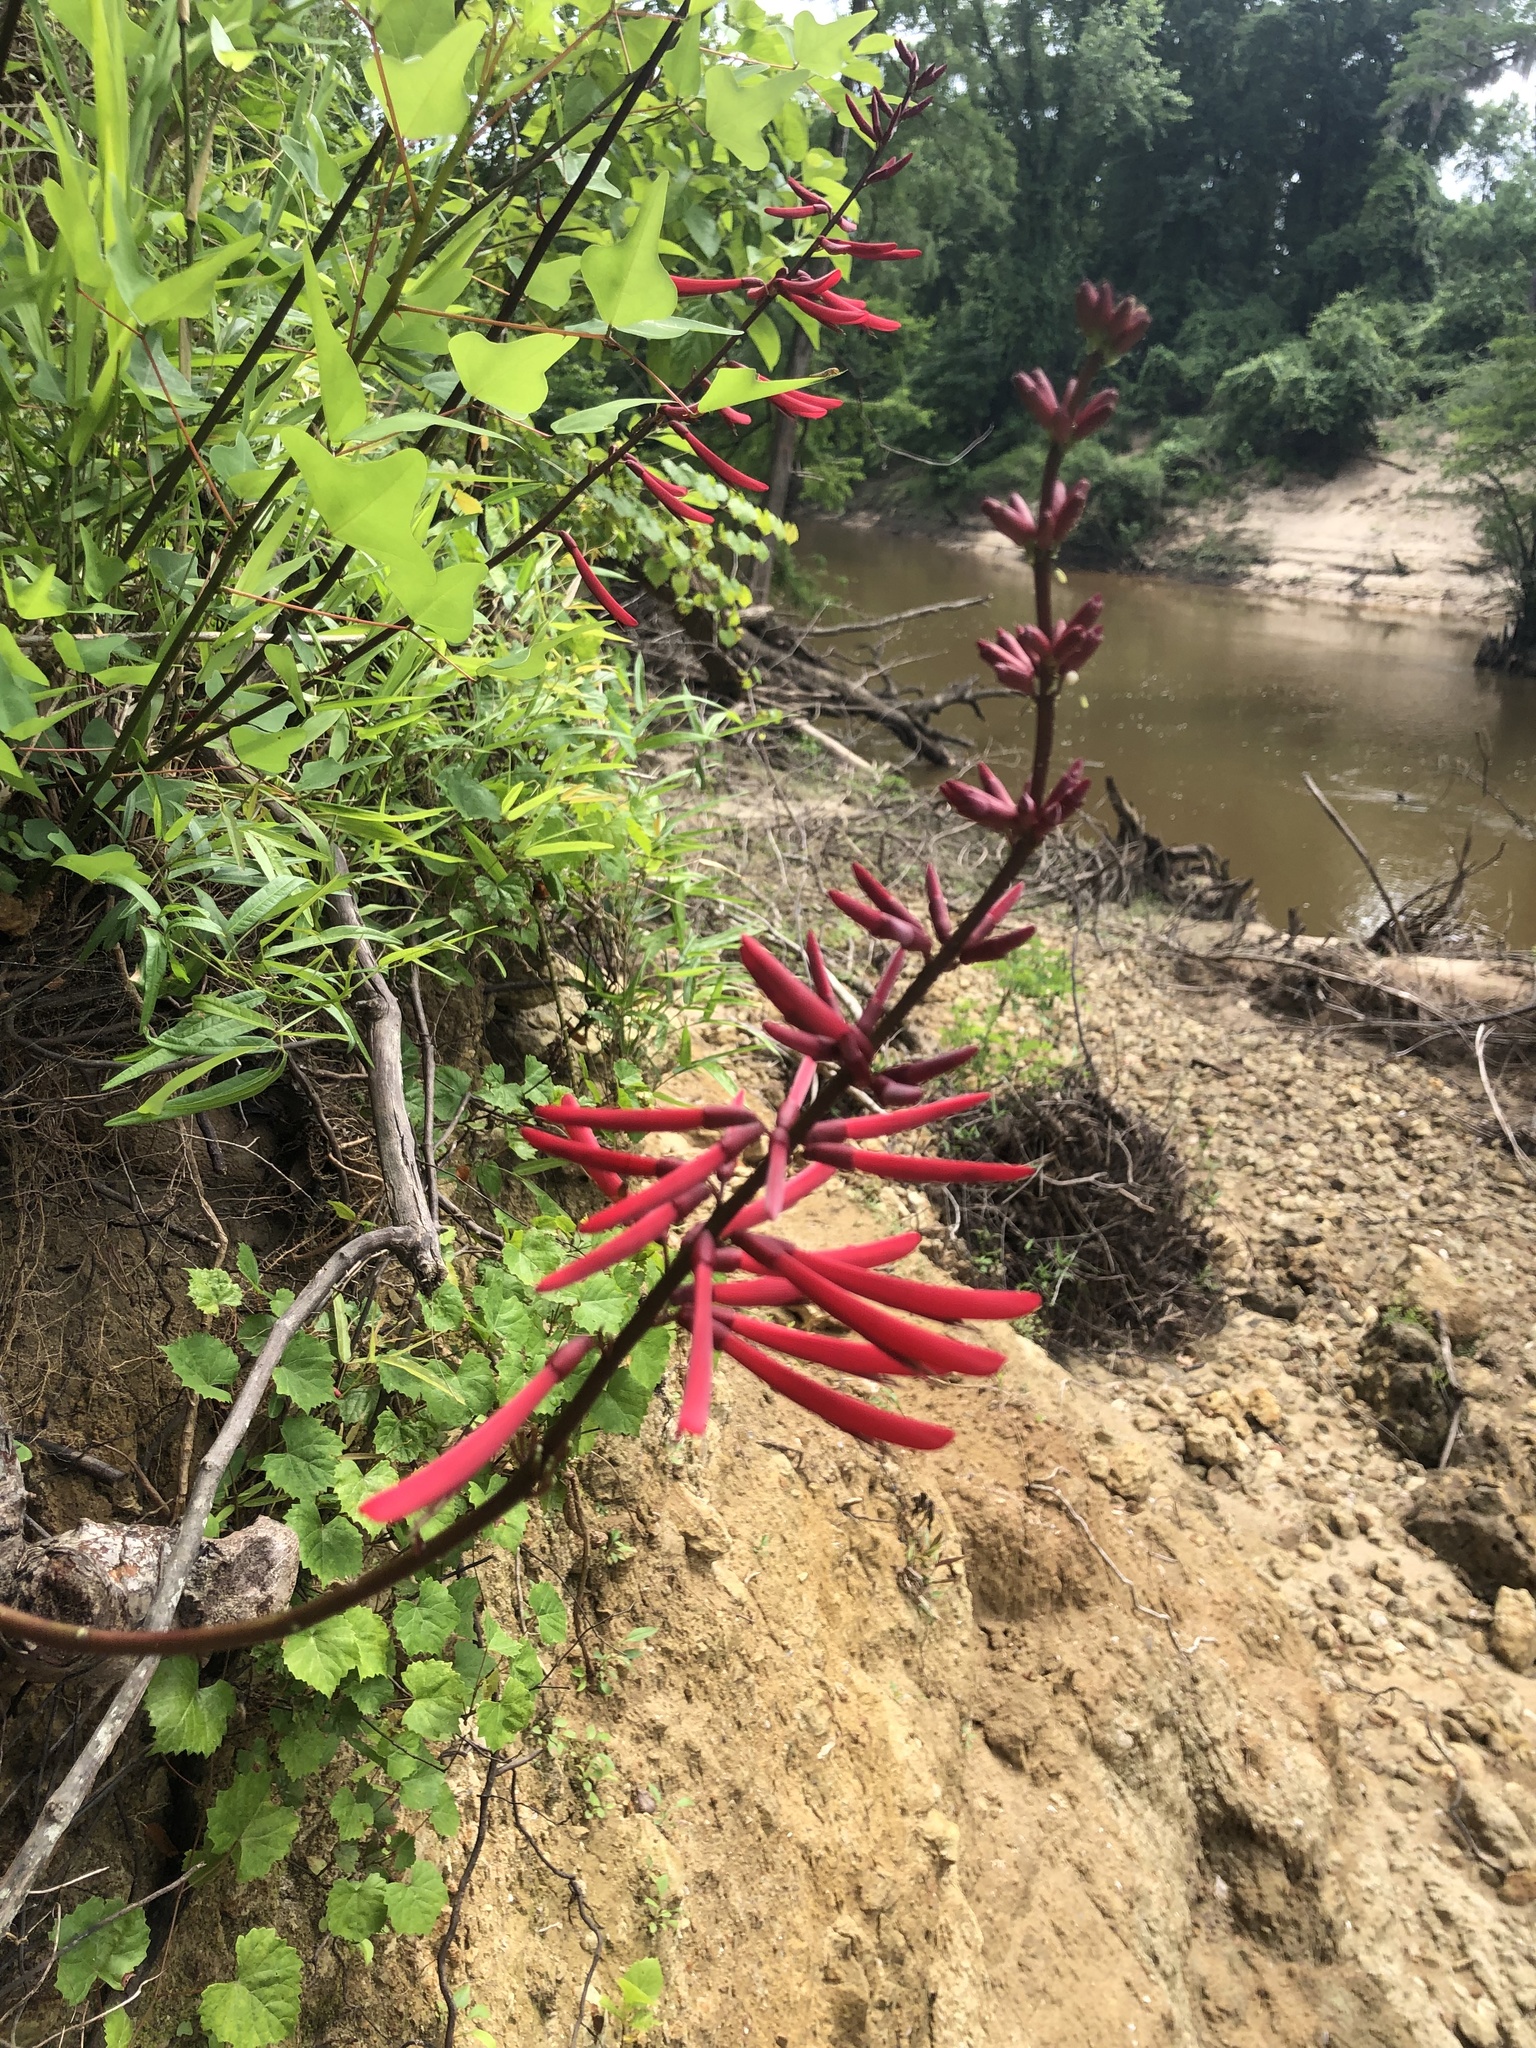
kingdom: Plantae
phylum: Tracheophyta
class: Magnoliopsida
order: Fabales
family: Fabaceae
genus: Erythrina
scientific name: Erythrina herbacea
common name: Coral-bean
